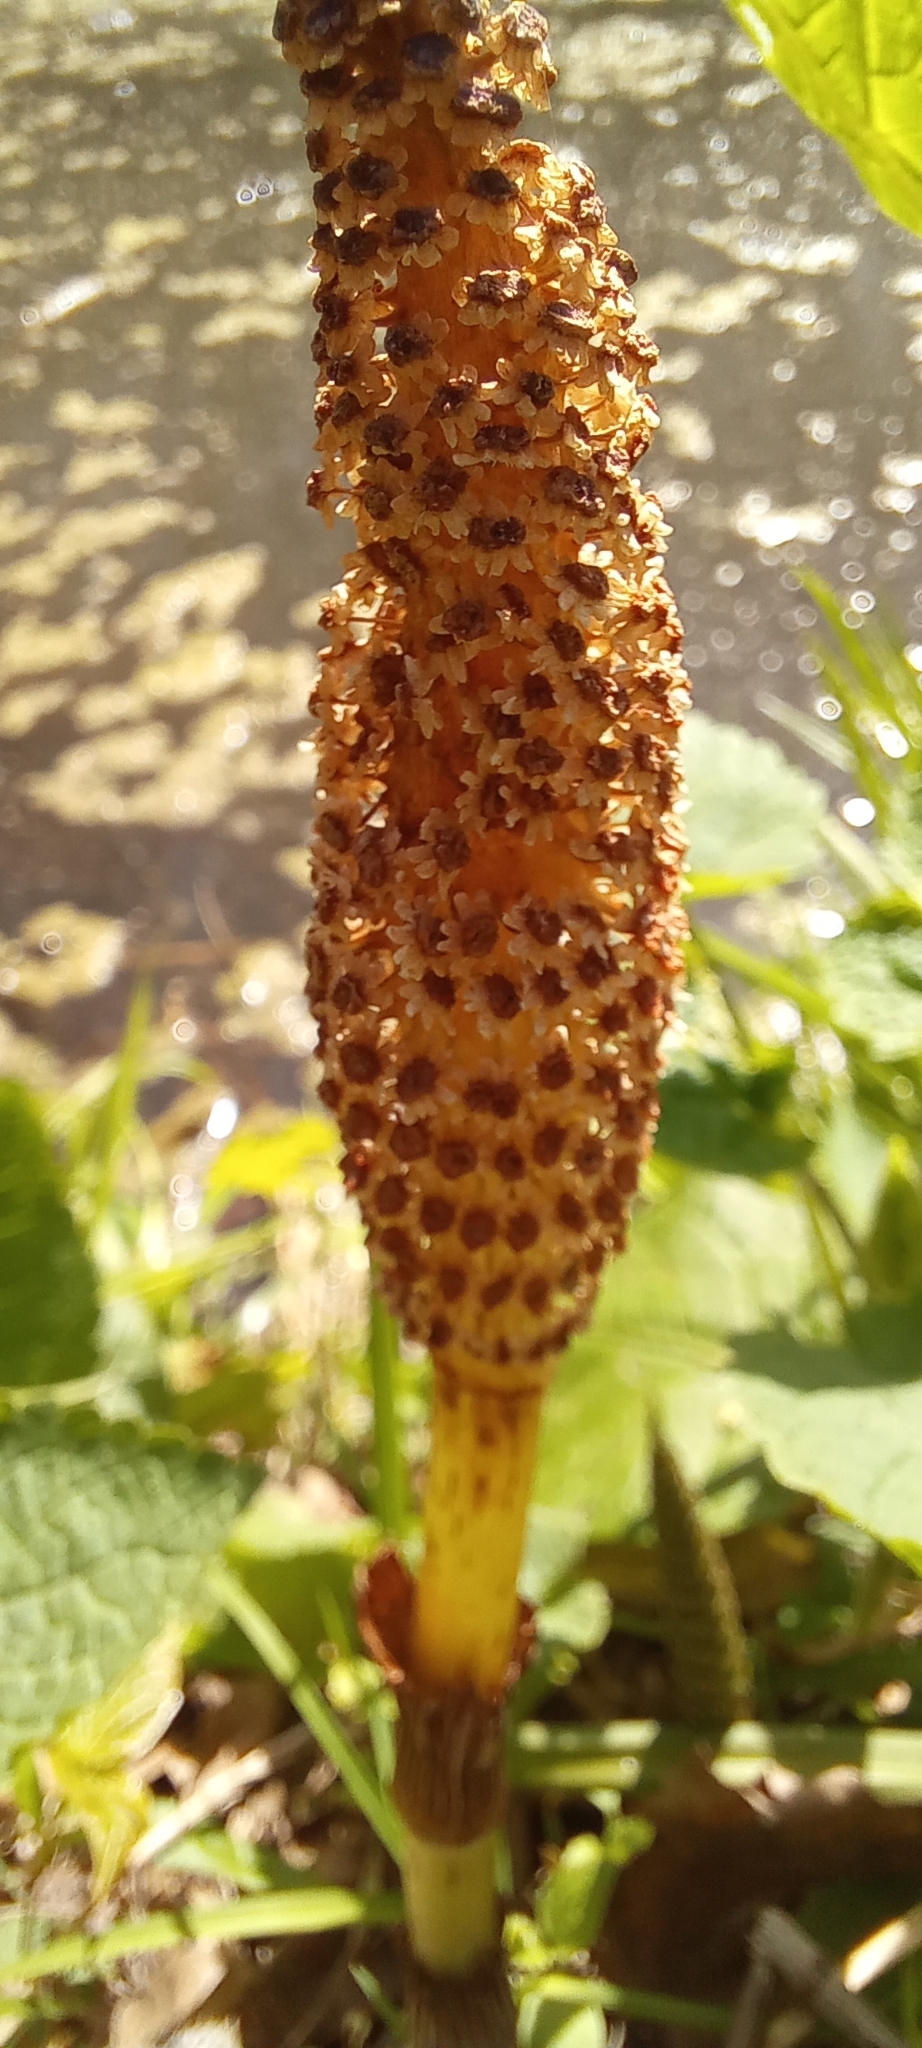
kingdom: Plantae
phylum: Tracheophyta
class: Polypodiopsida
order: Equisetales
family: Equisetaceae
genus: Equisetum
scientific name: Equisetum telmateia
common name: Great horsetail
